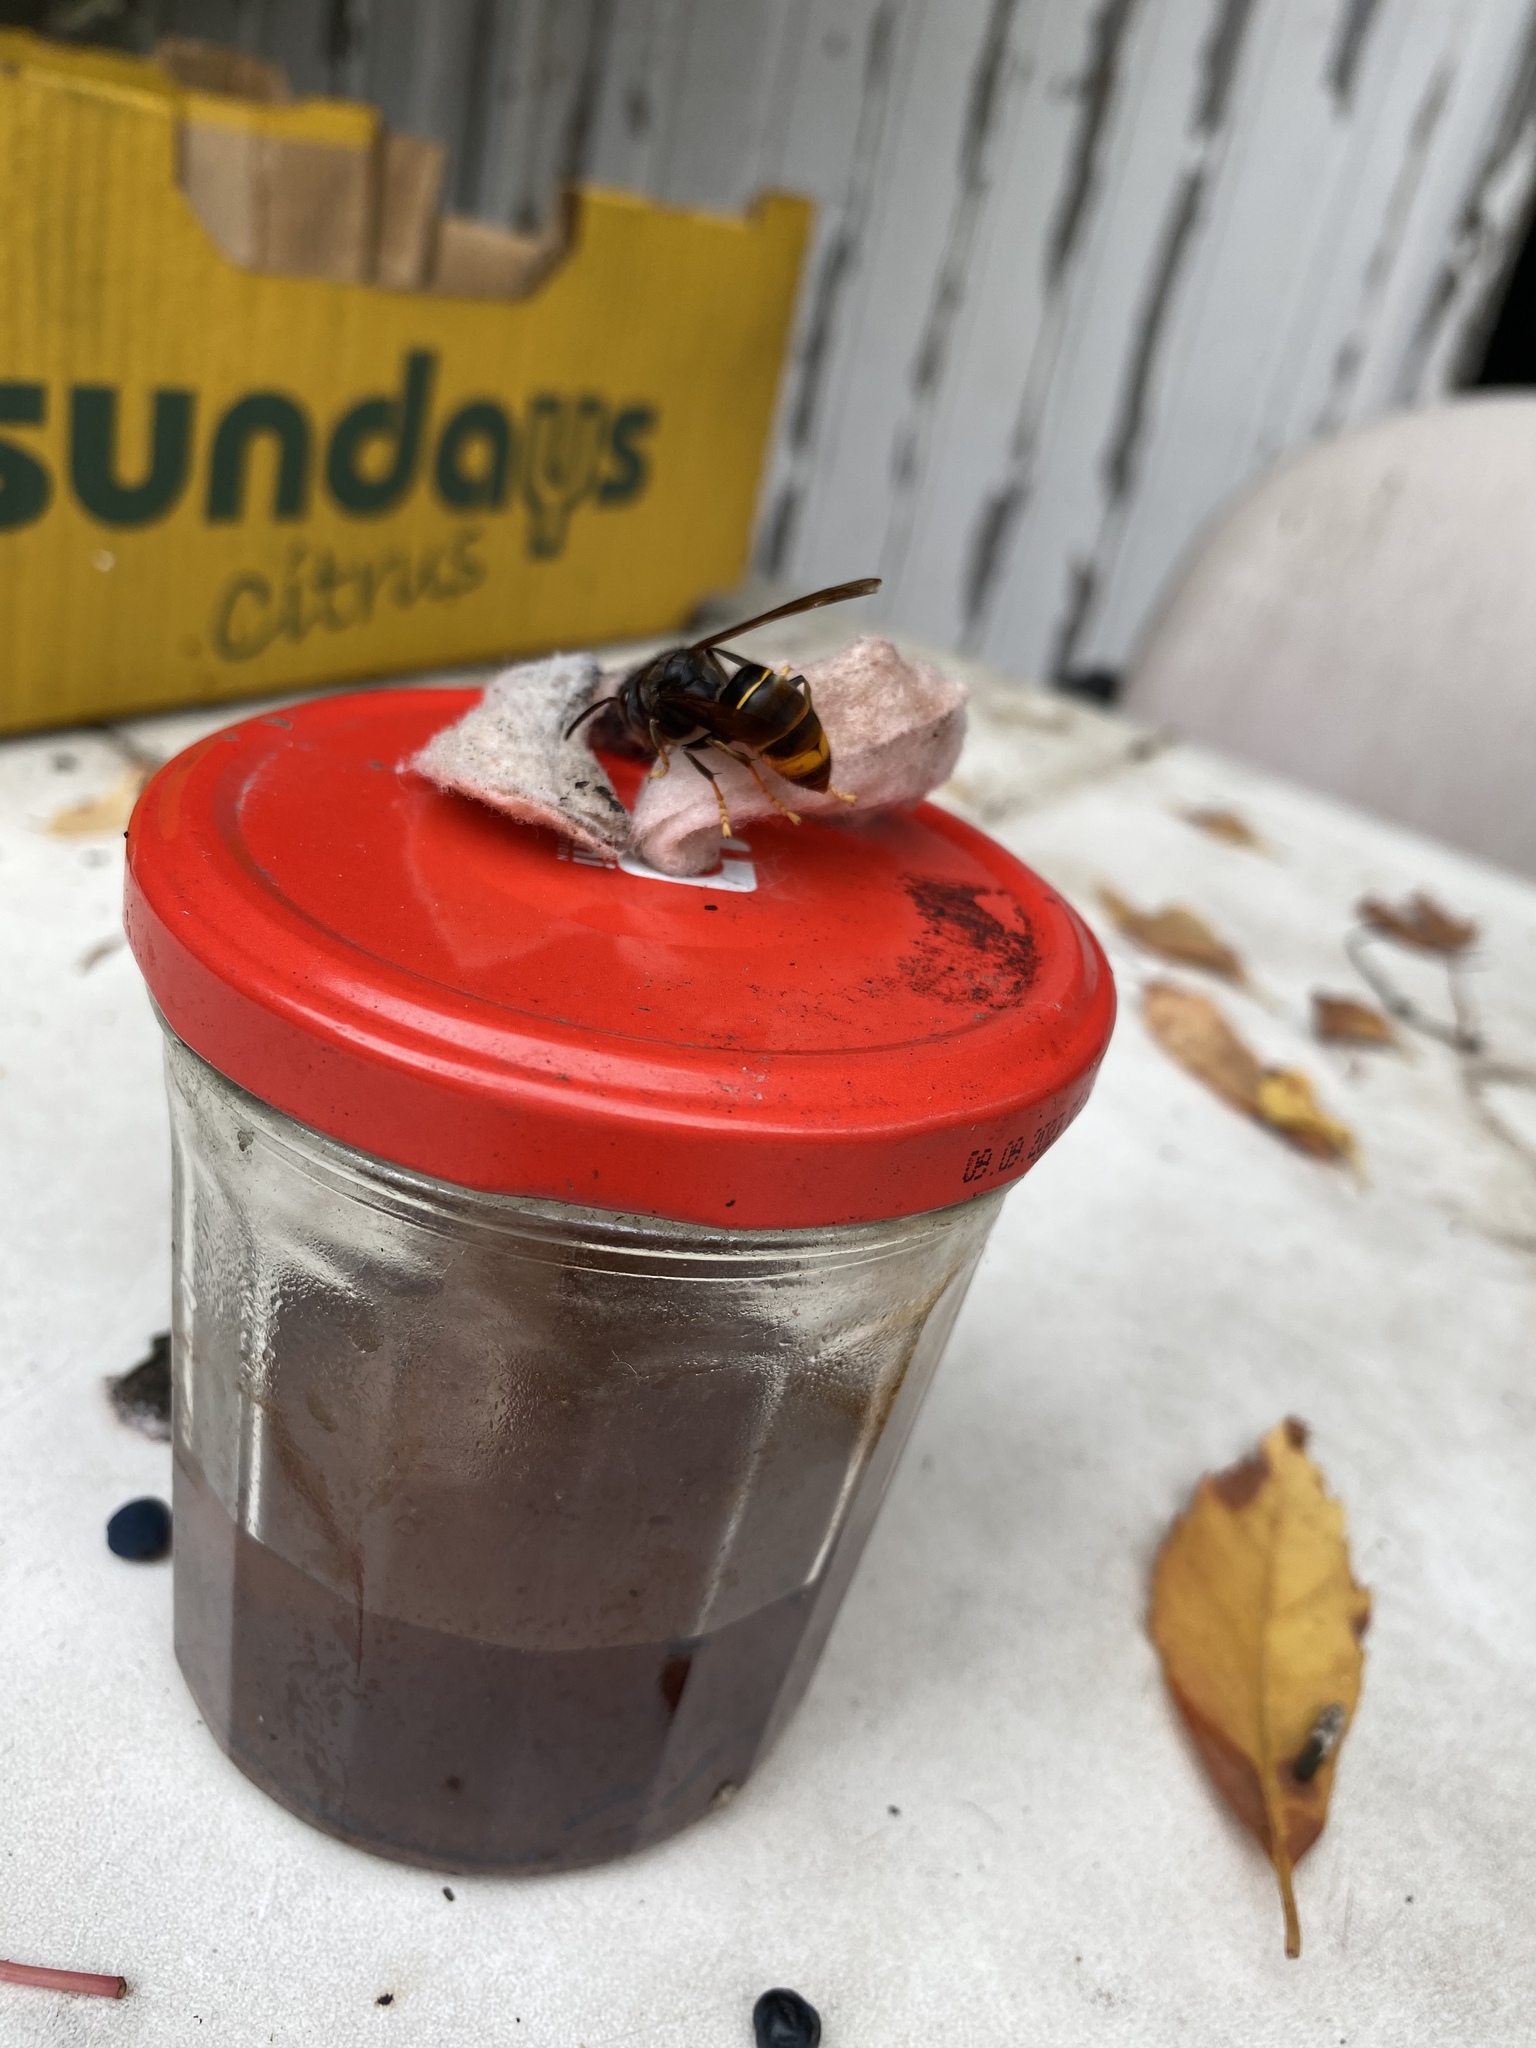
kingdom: Animalia
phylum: Arthropoda
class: Insecta
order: Hymenoptera
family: Vespidae
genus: Vespa
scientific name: Vespa velutina
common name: Asian hornet
